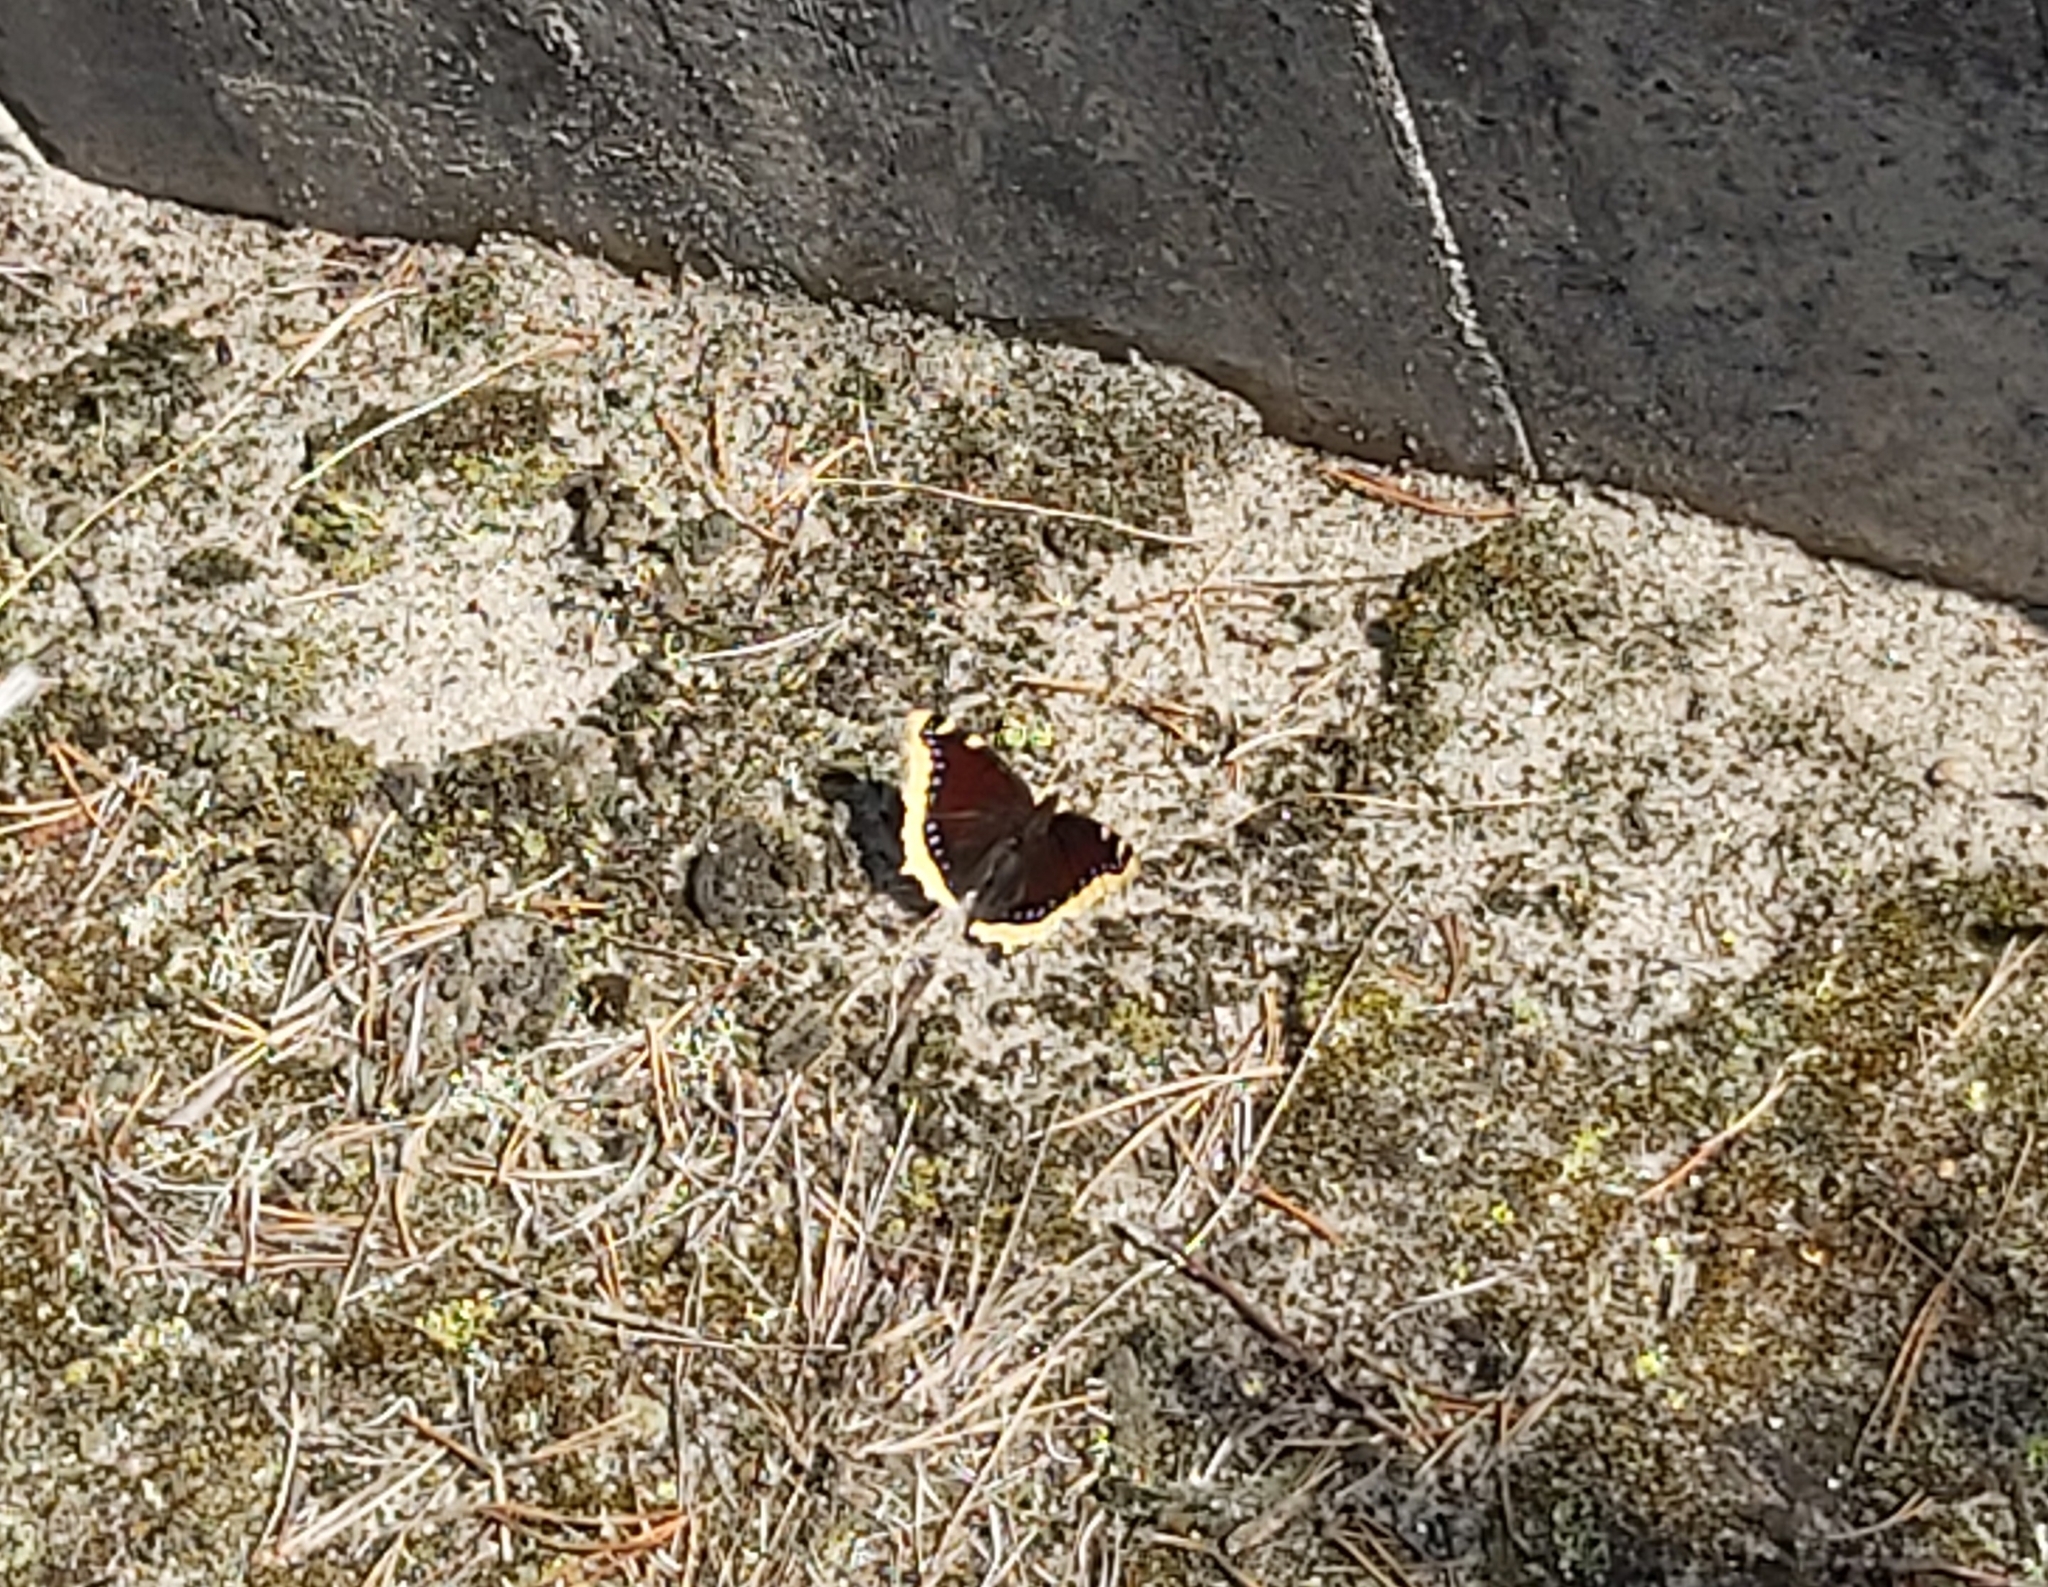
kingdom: Animalia
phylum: Arthropoda
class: Insecta
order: Lepidoptera
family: Nymphalidae
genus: Nymphalis
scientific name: Nymphalis antiopa
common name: Camberwell beauty
